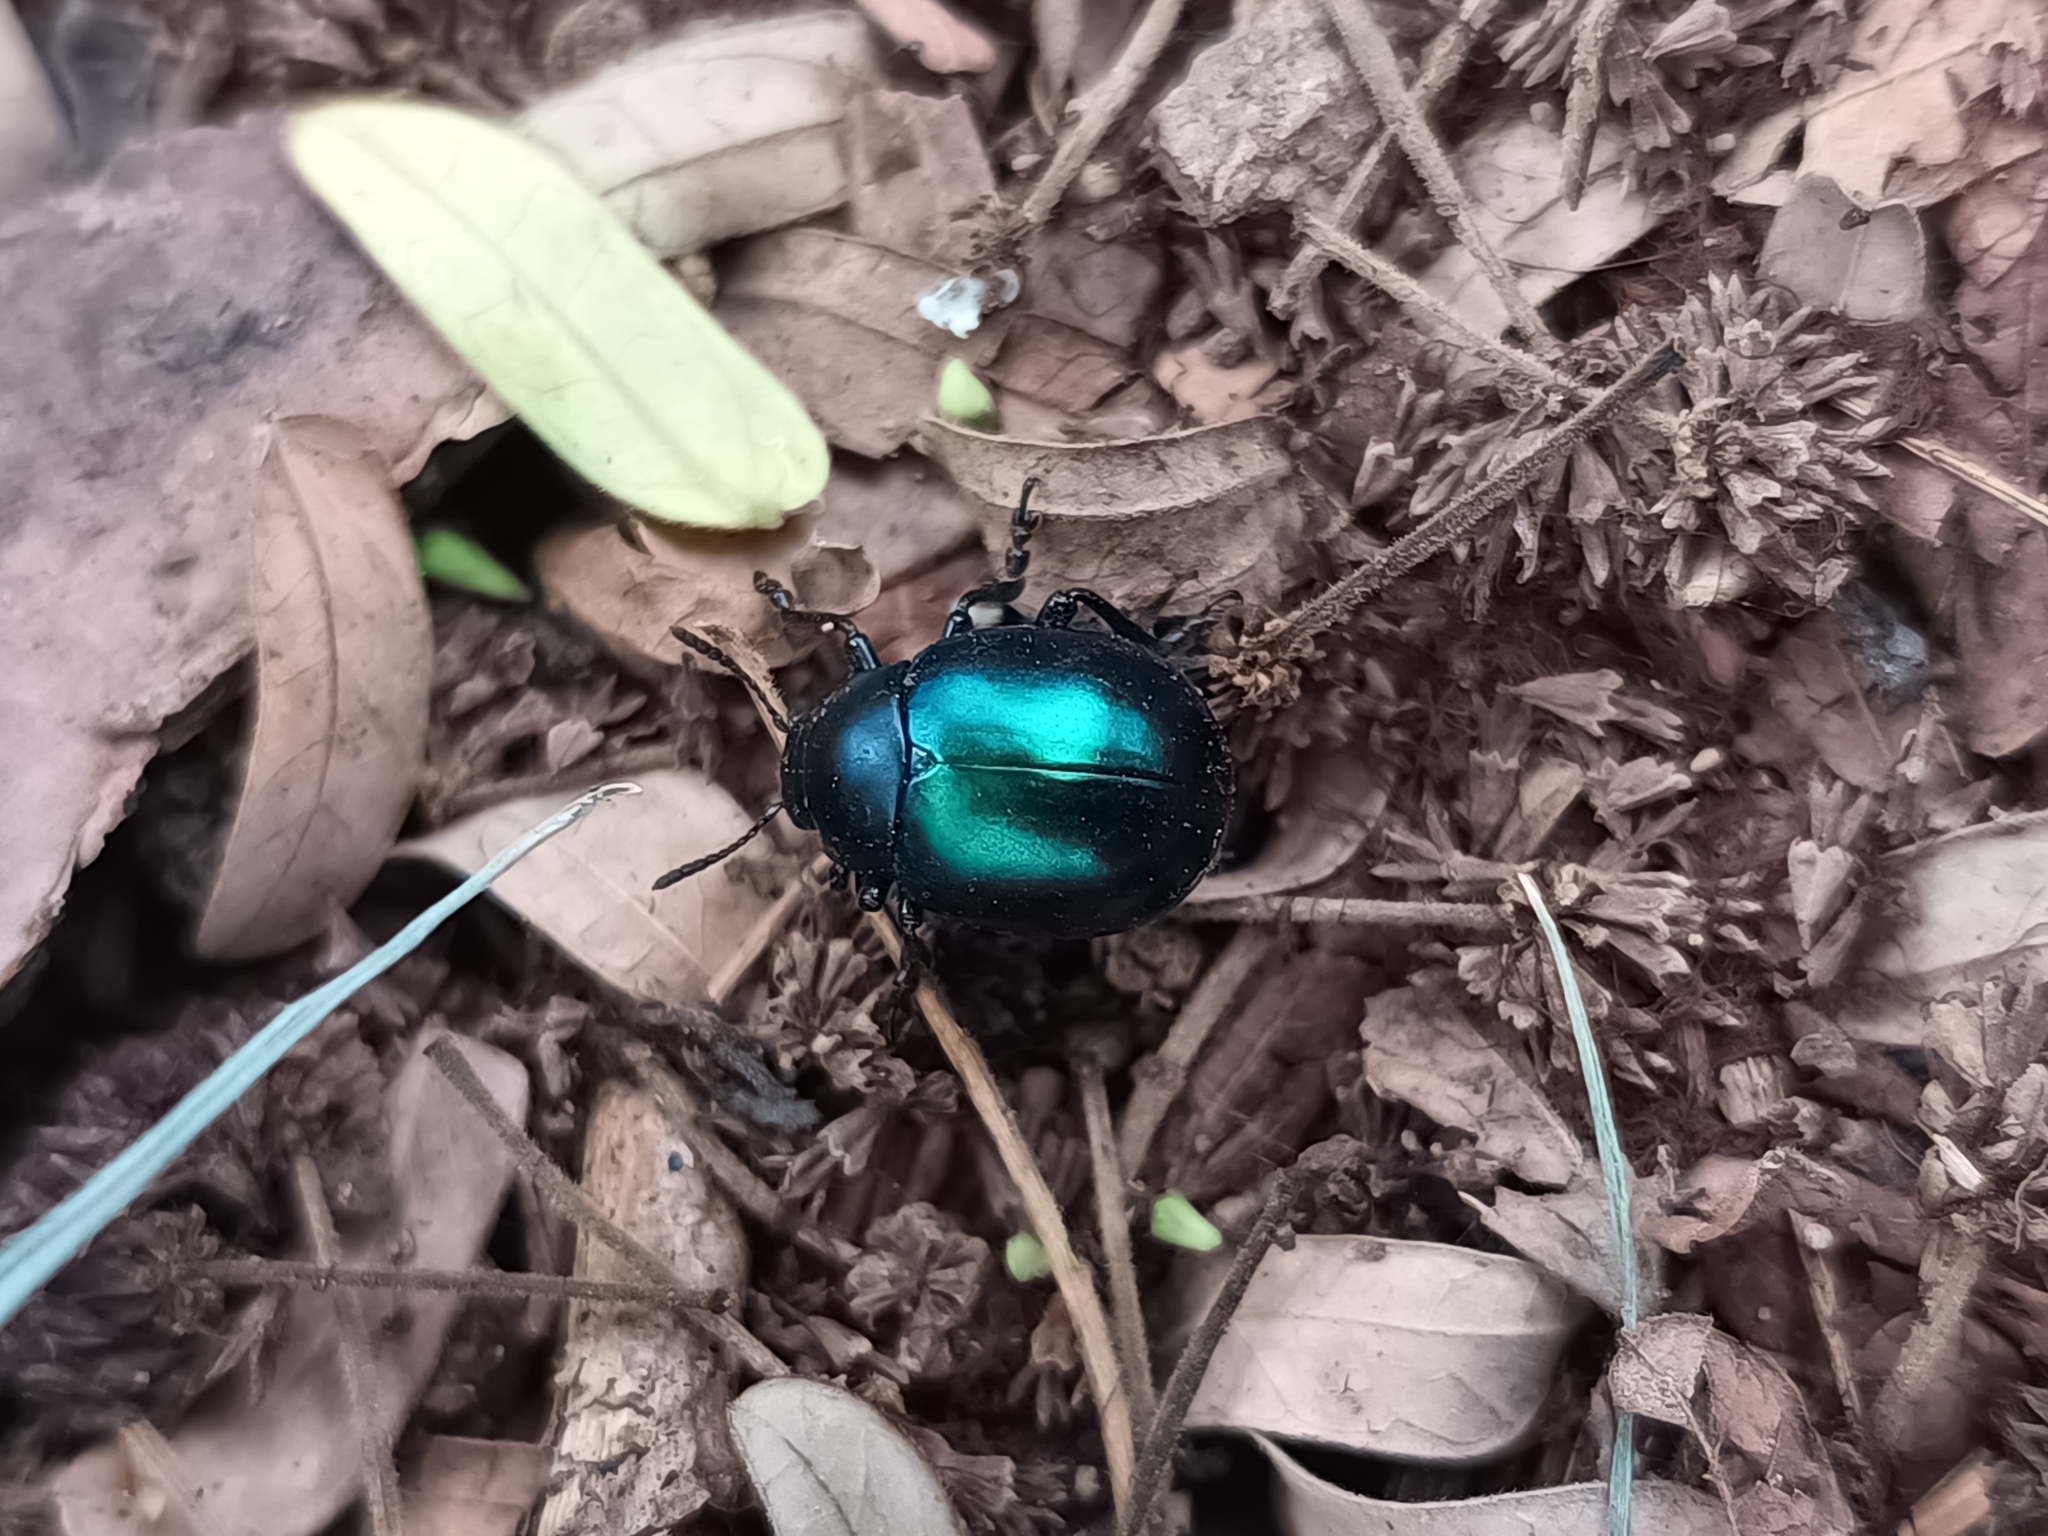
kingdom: Animalia
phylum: Arthropoda
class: Insecta
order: Coleoptera
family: Chrysomelidae
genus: Leptinotarsa
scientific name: Leptinotarsa haldemani
